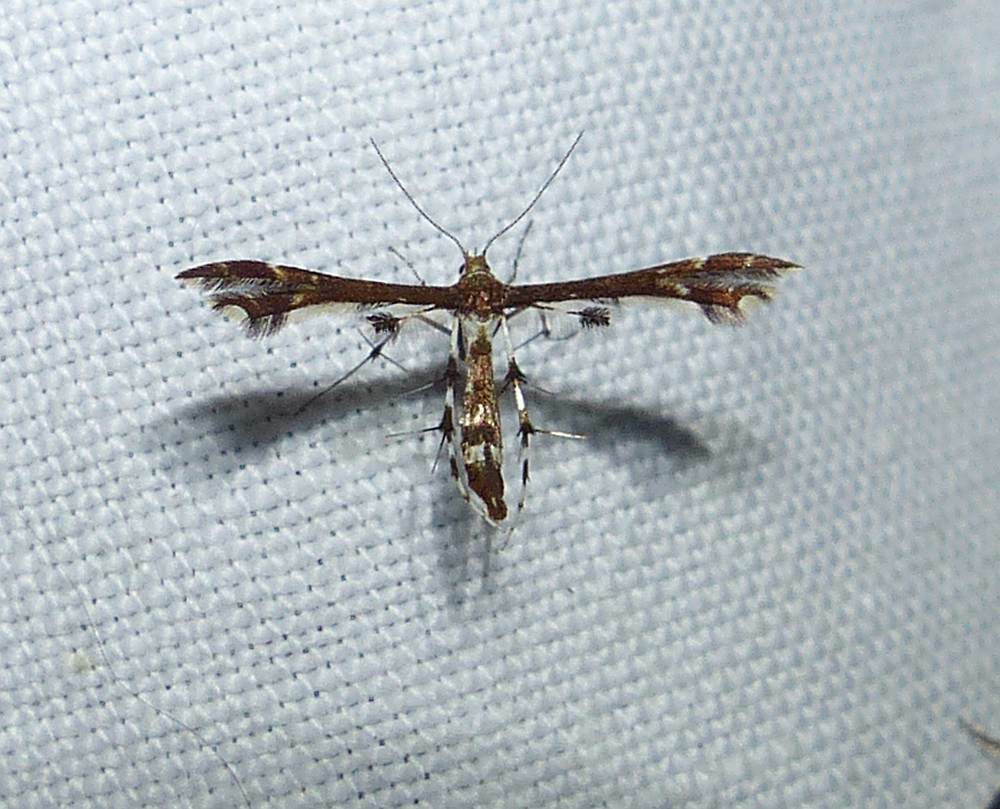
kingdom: Animalia
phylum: Arthropoda
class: Insecta
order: Lepidoptera
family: Pterophoridae
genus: Geina
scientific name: Geina
